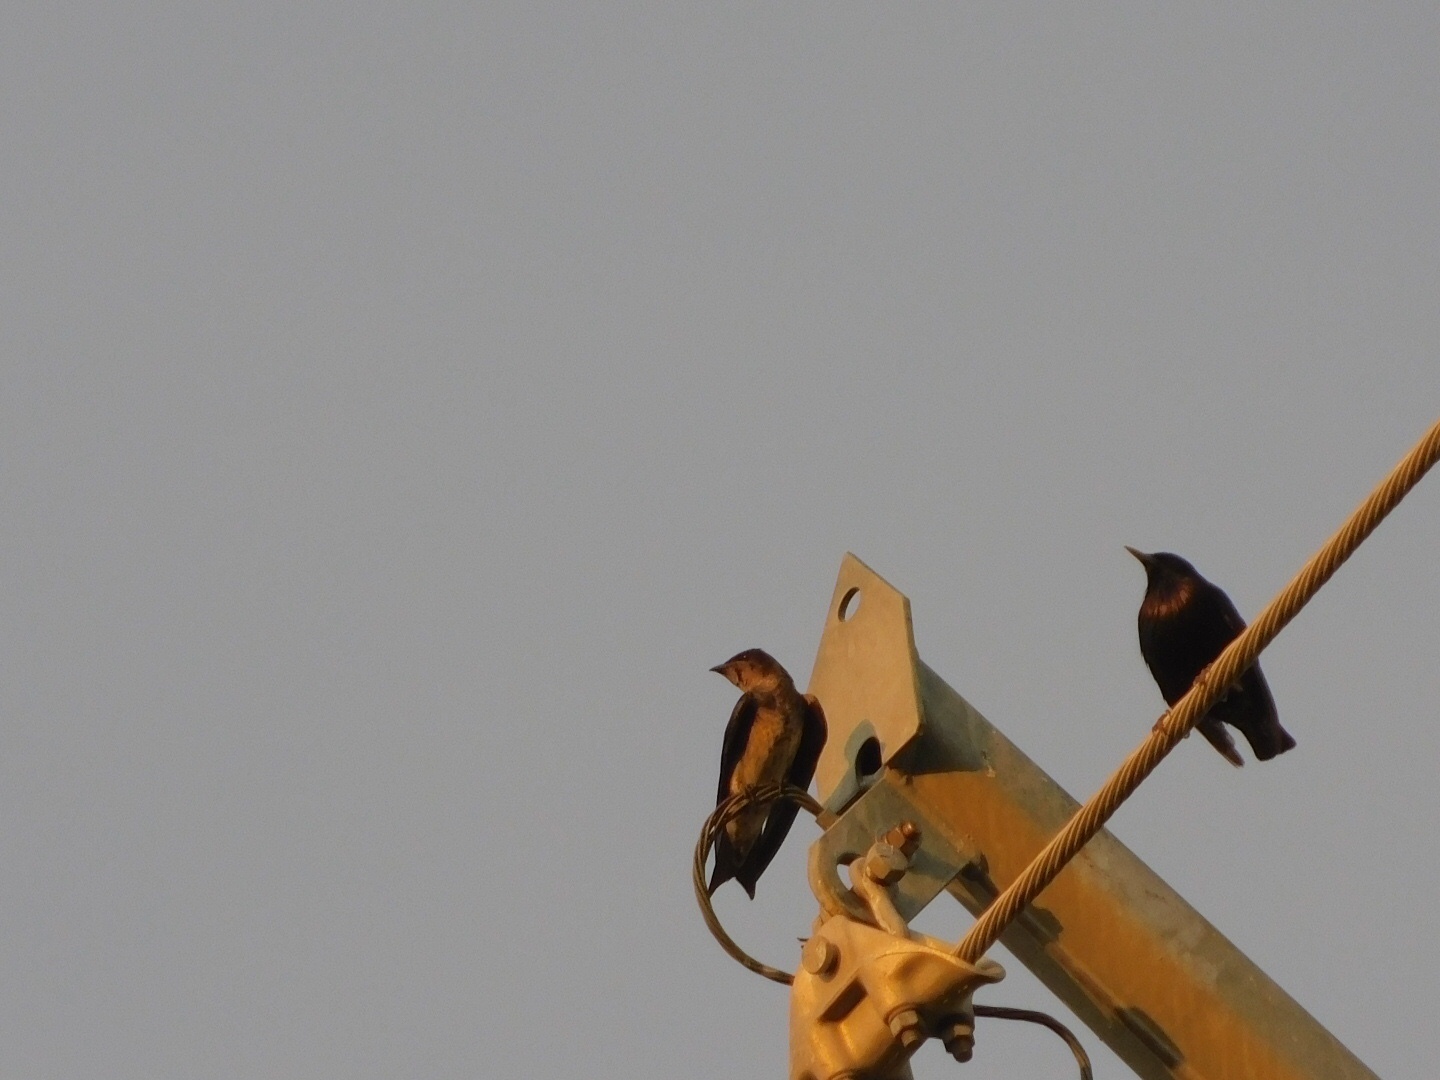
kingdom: Animalia
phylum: Chordata
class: Aves
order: Passeriformes
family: Hirundinidae
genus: Progne
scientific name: Progne subis
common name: Purple martin
